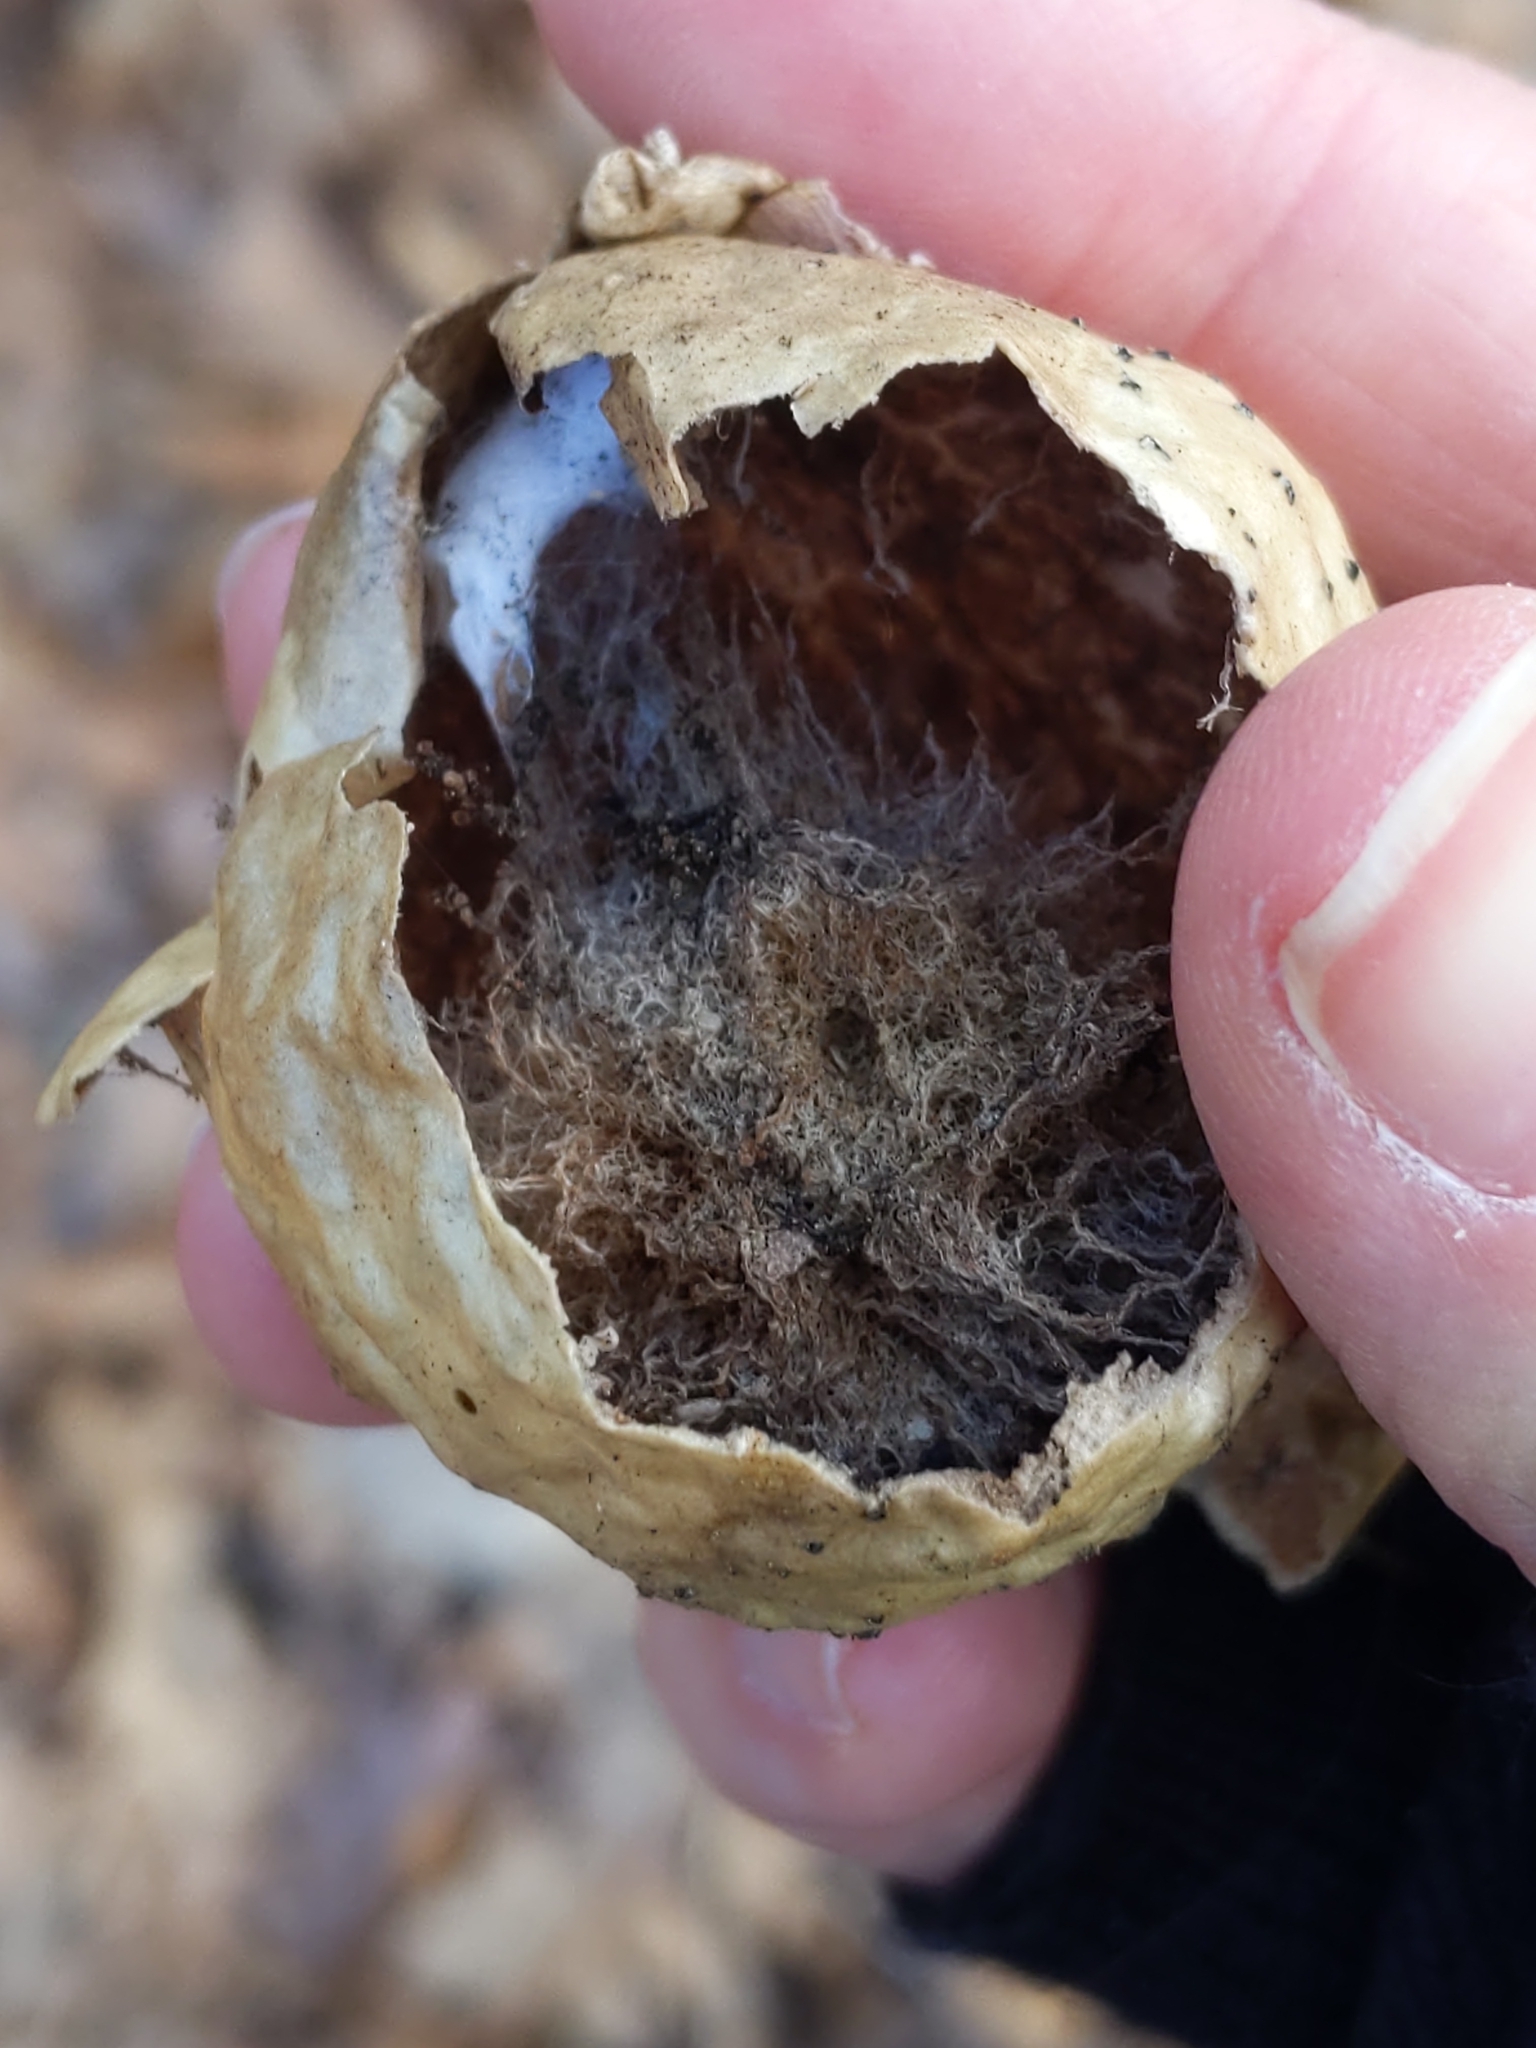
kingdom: Animalia
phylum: Arthropoda
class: Insecta
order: Hymenoptera
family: Cynipidae
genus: Amphibolips
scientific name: Amphibolips
